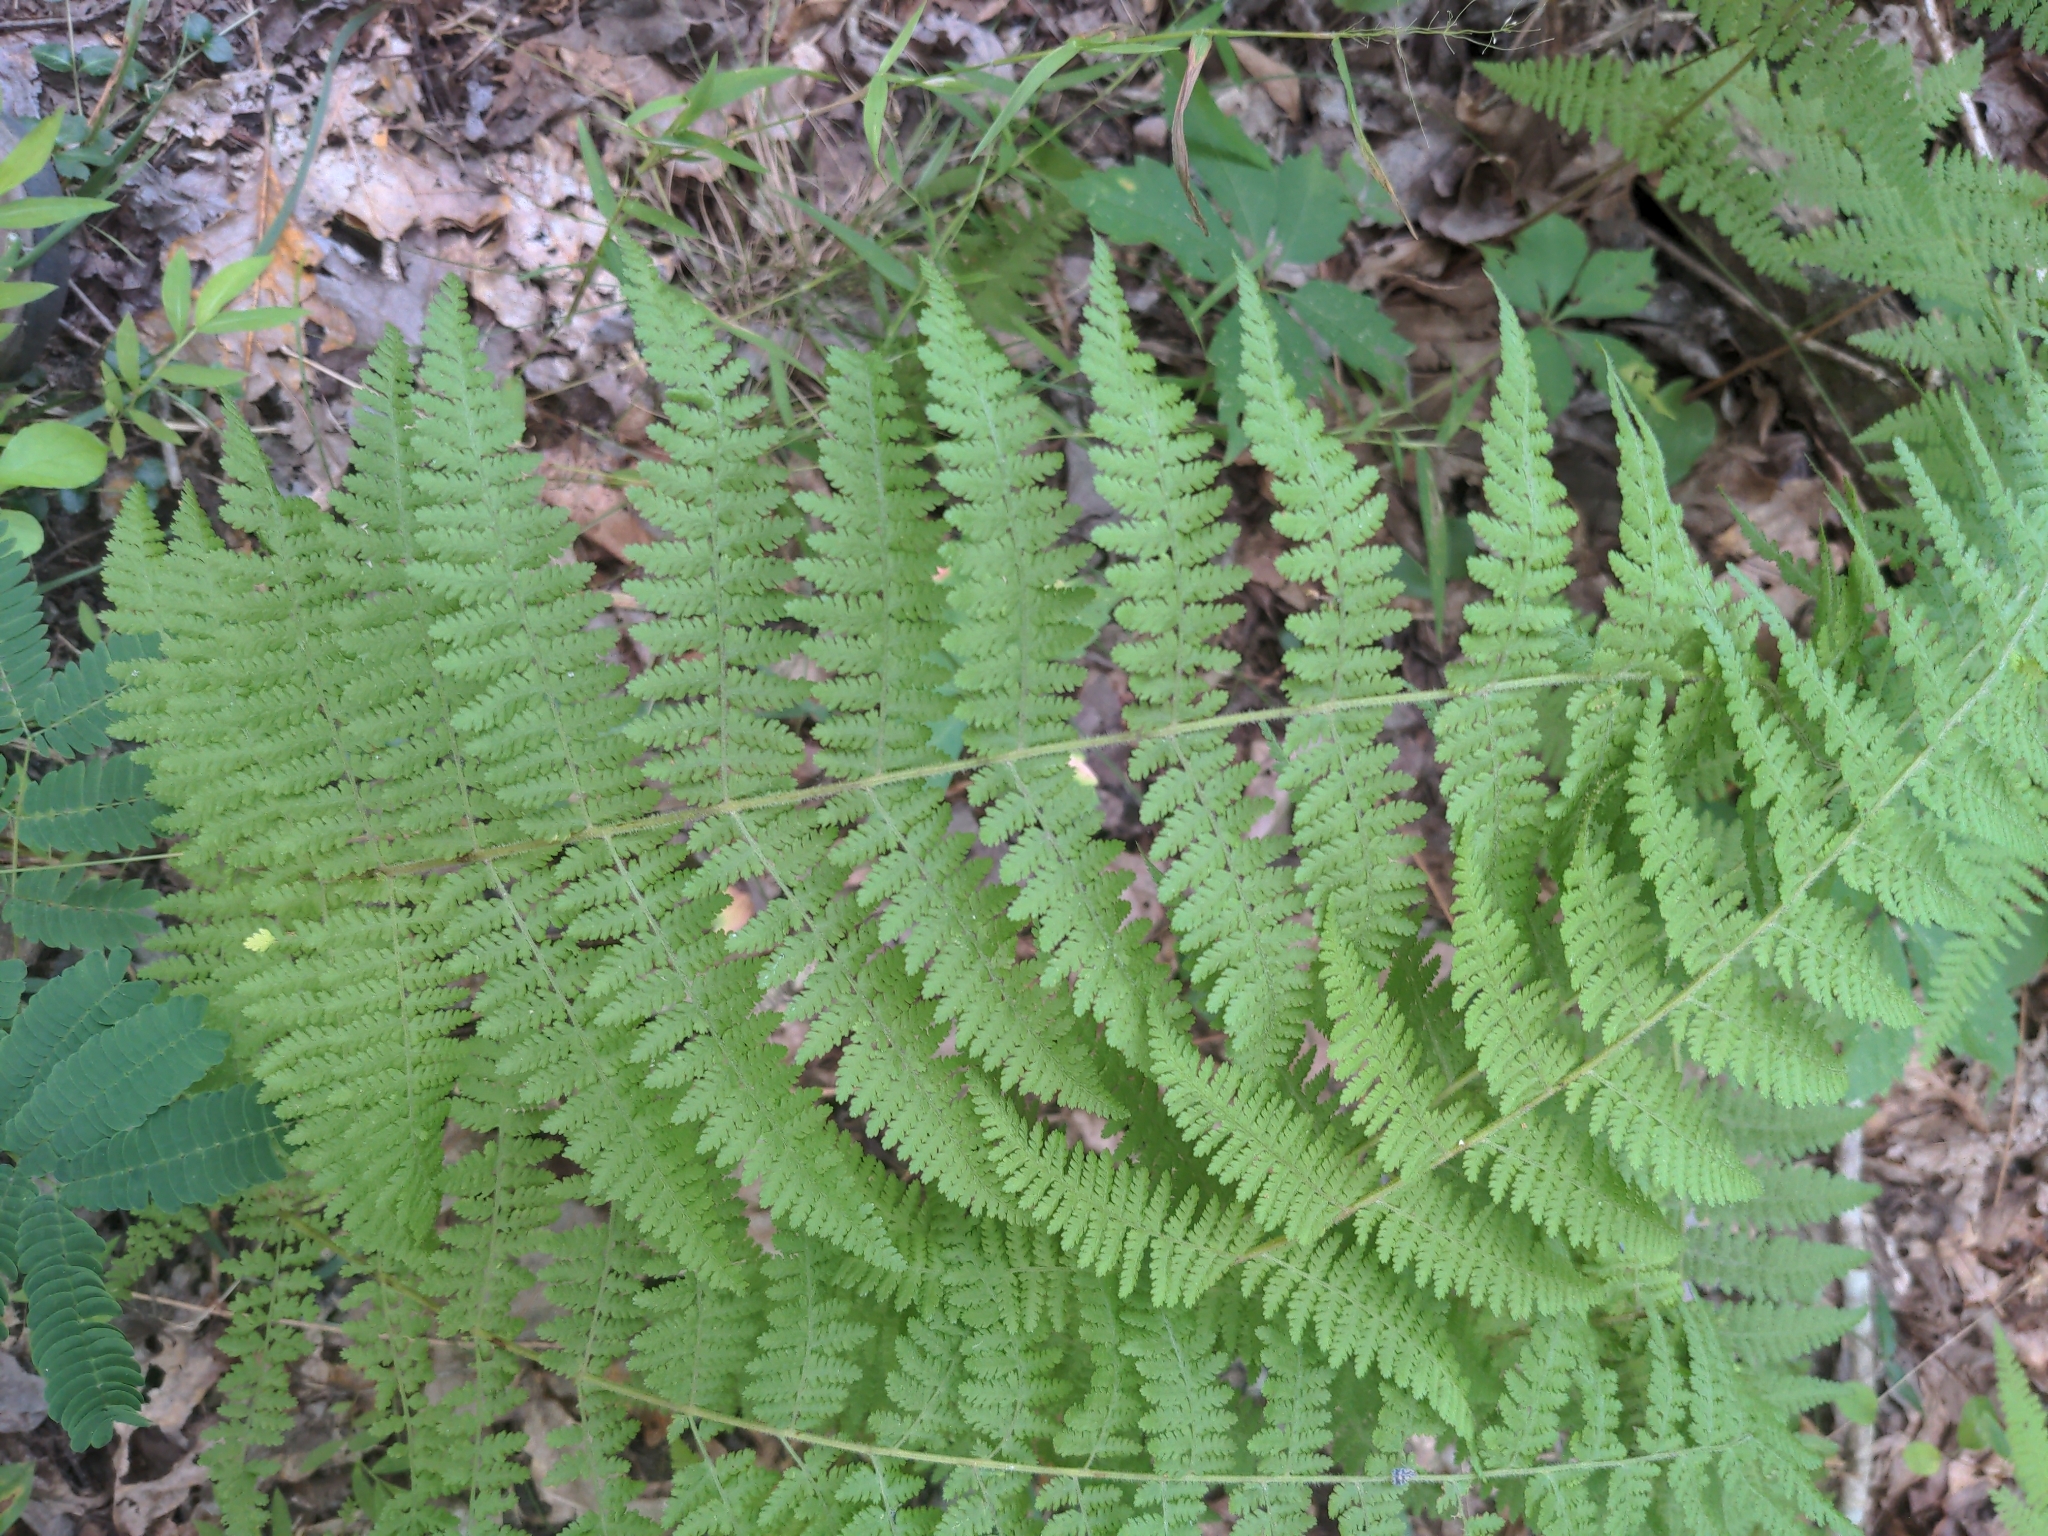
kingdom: Plantae
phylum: Tracheophyta
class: Polypodiopsida
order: Polypodiales
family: Dennstaedtiaceae
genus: Sitobolium
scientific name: Sitobolium punctilobum
